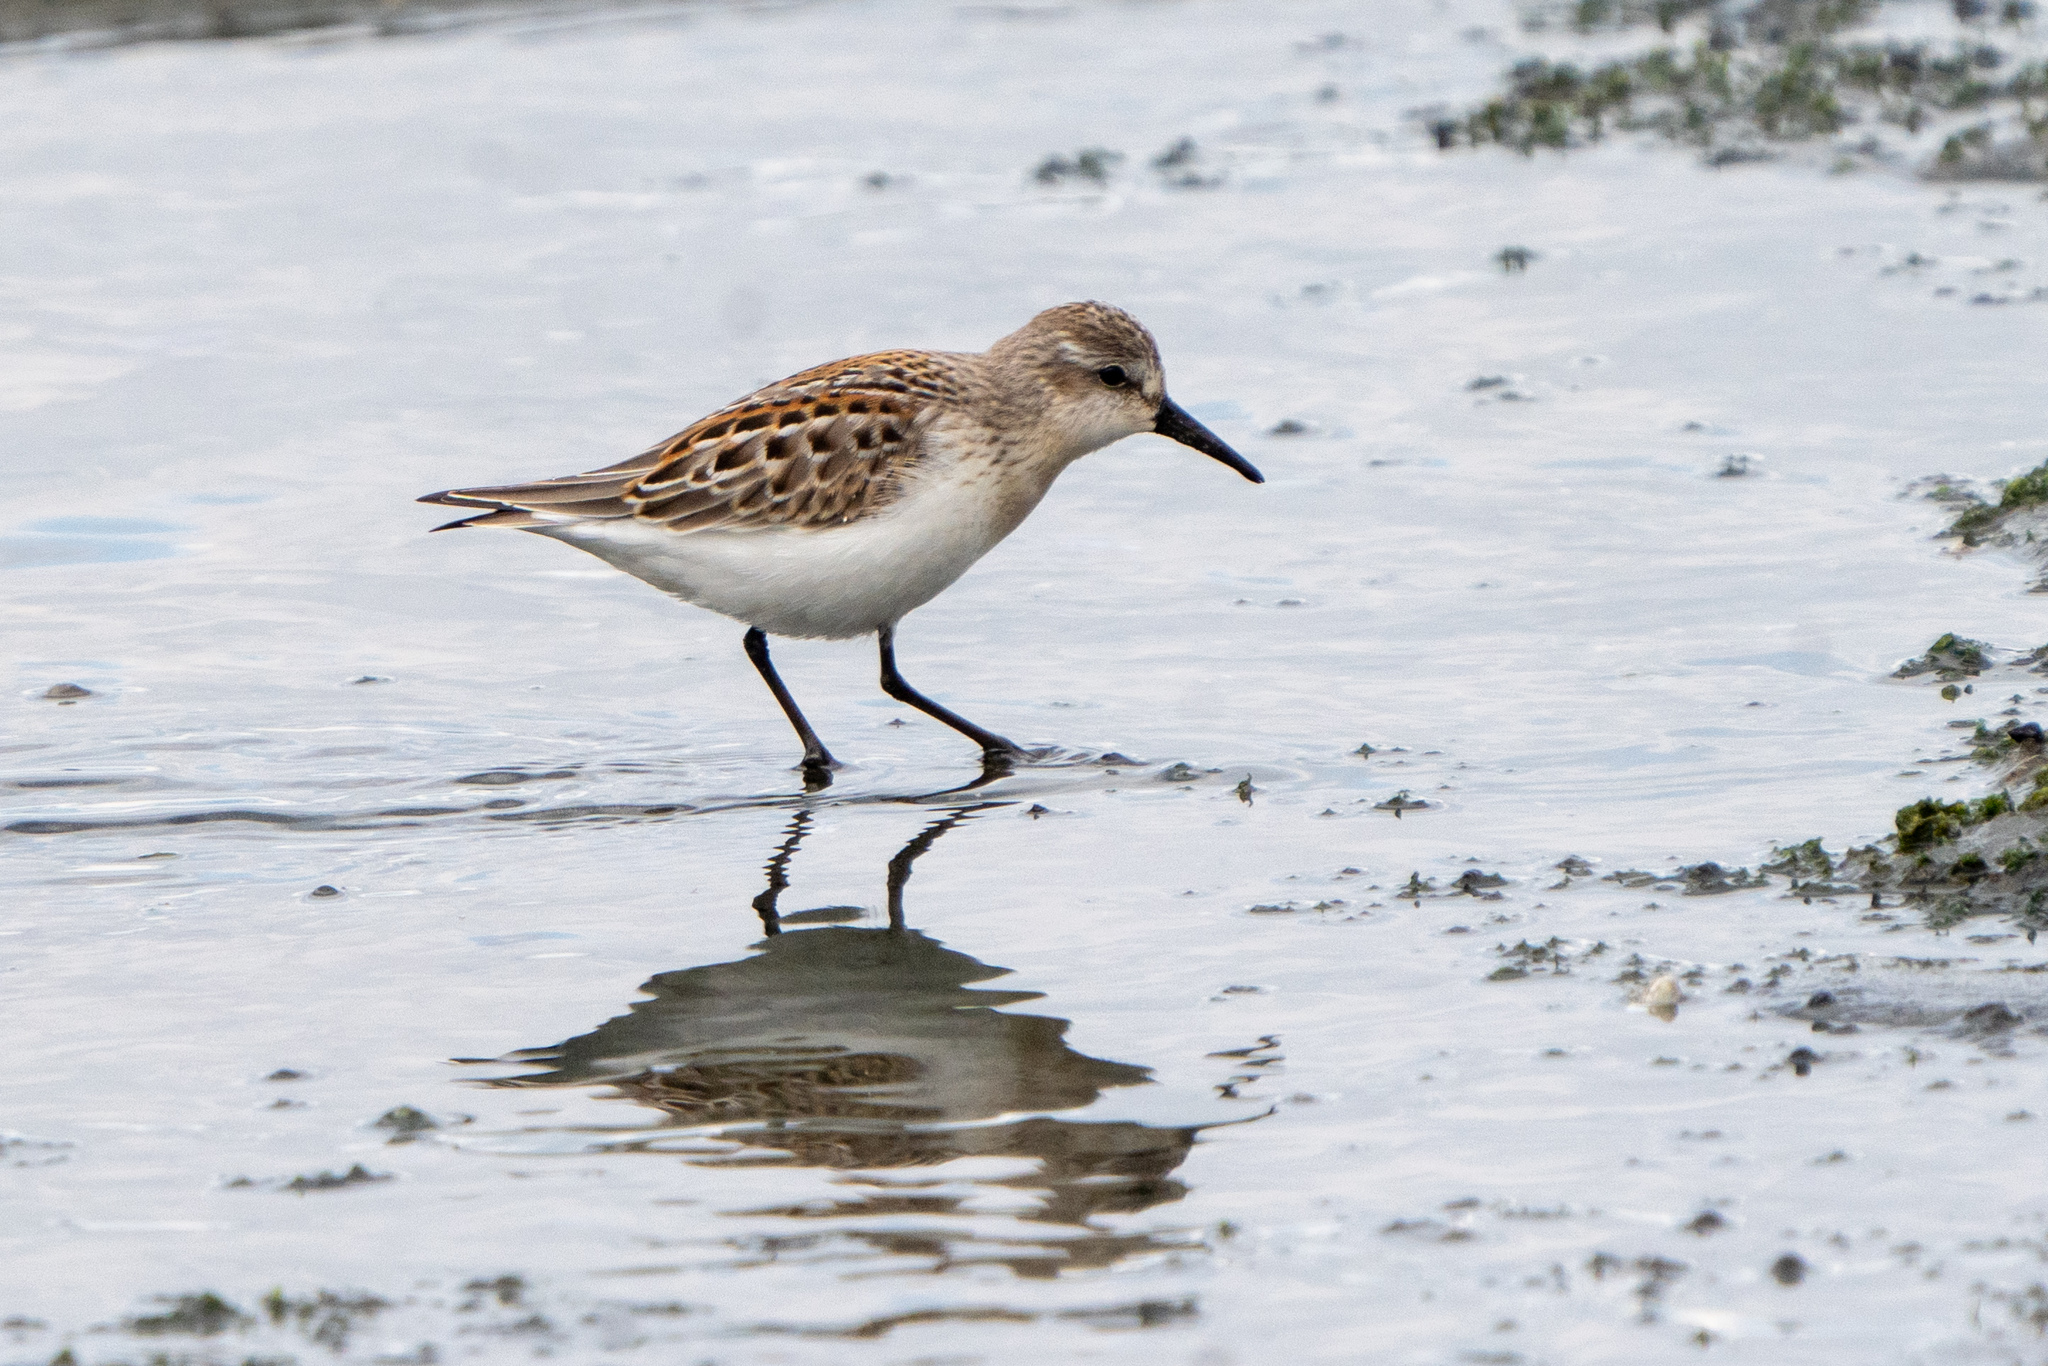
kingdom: Animalia
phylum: Chordata
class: Aves
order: Charadriiformes
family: Scolopacidae
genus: Calidris
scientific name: Calidris mauri
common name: Western sandpiper
